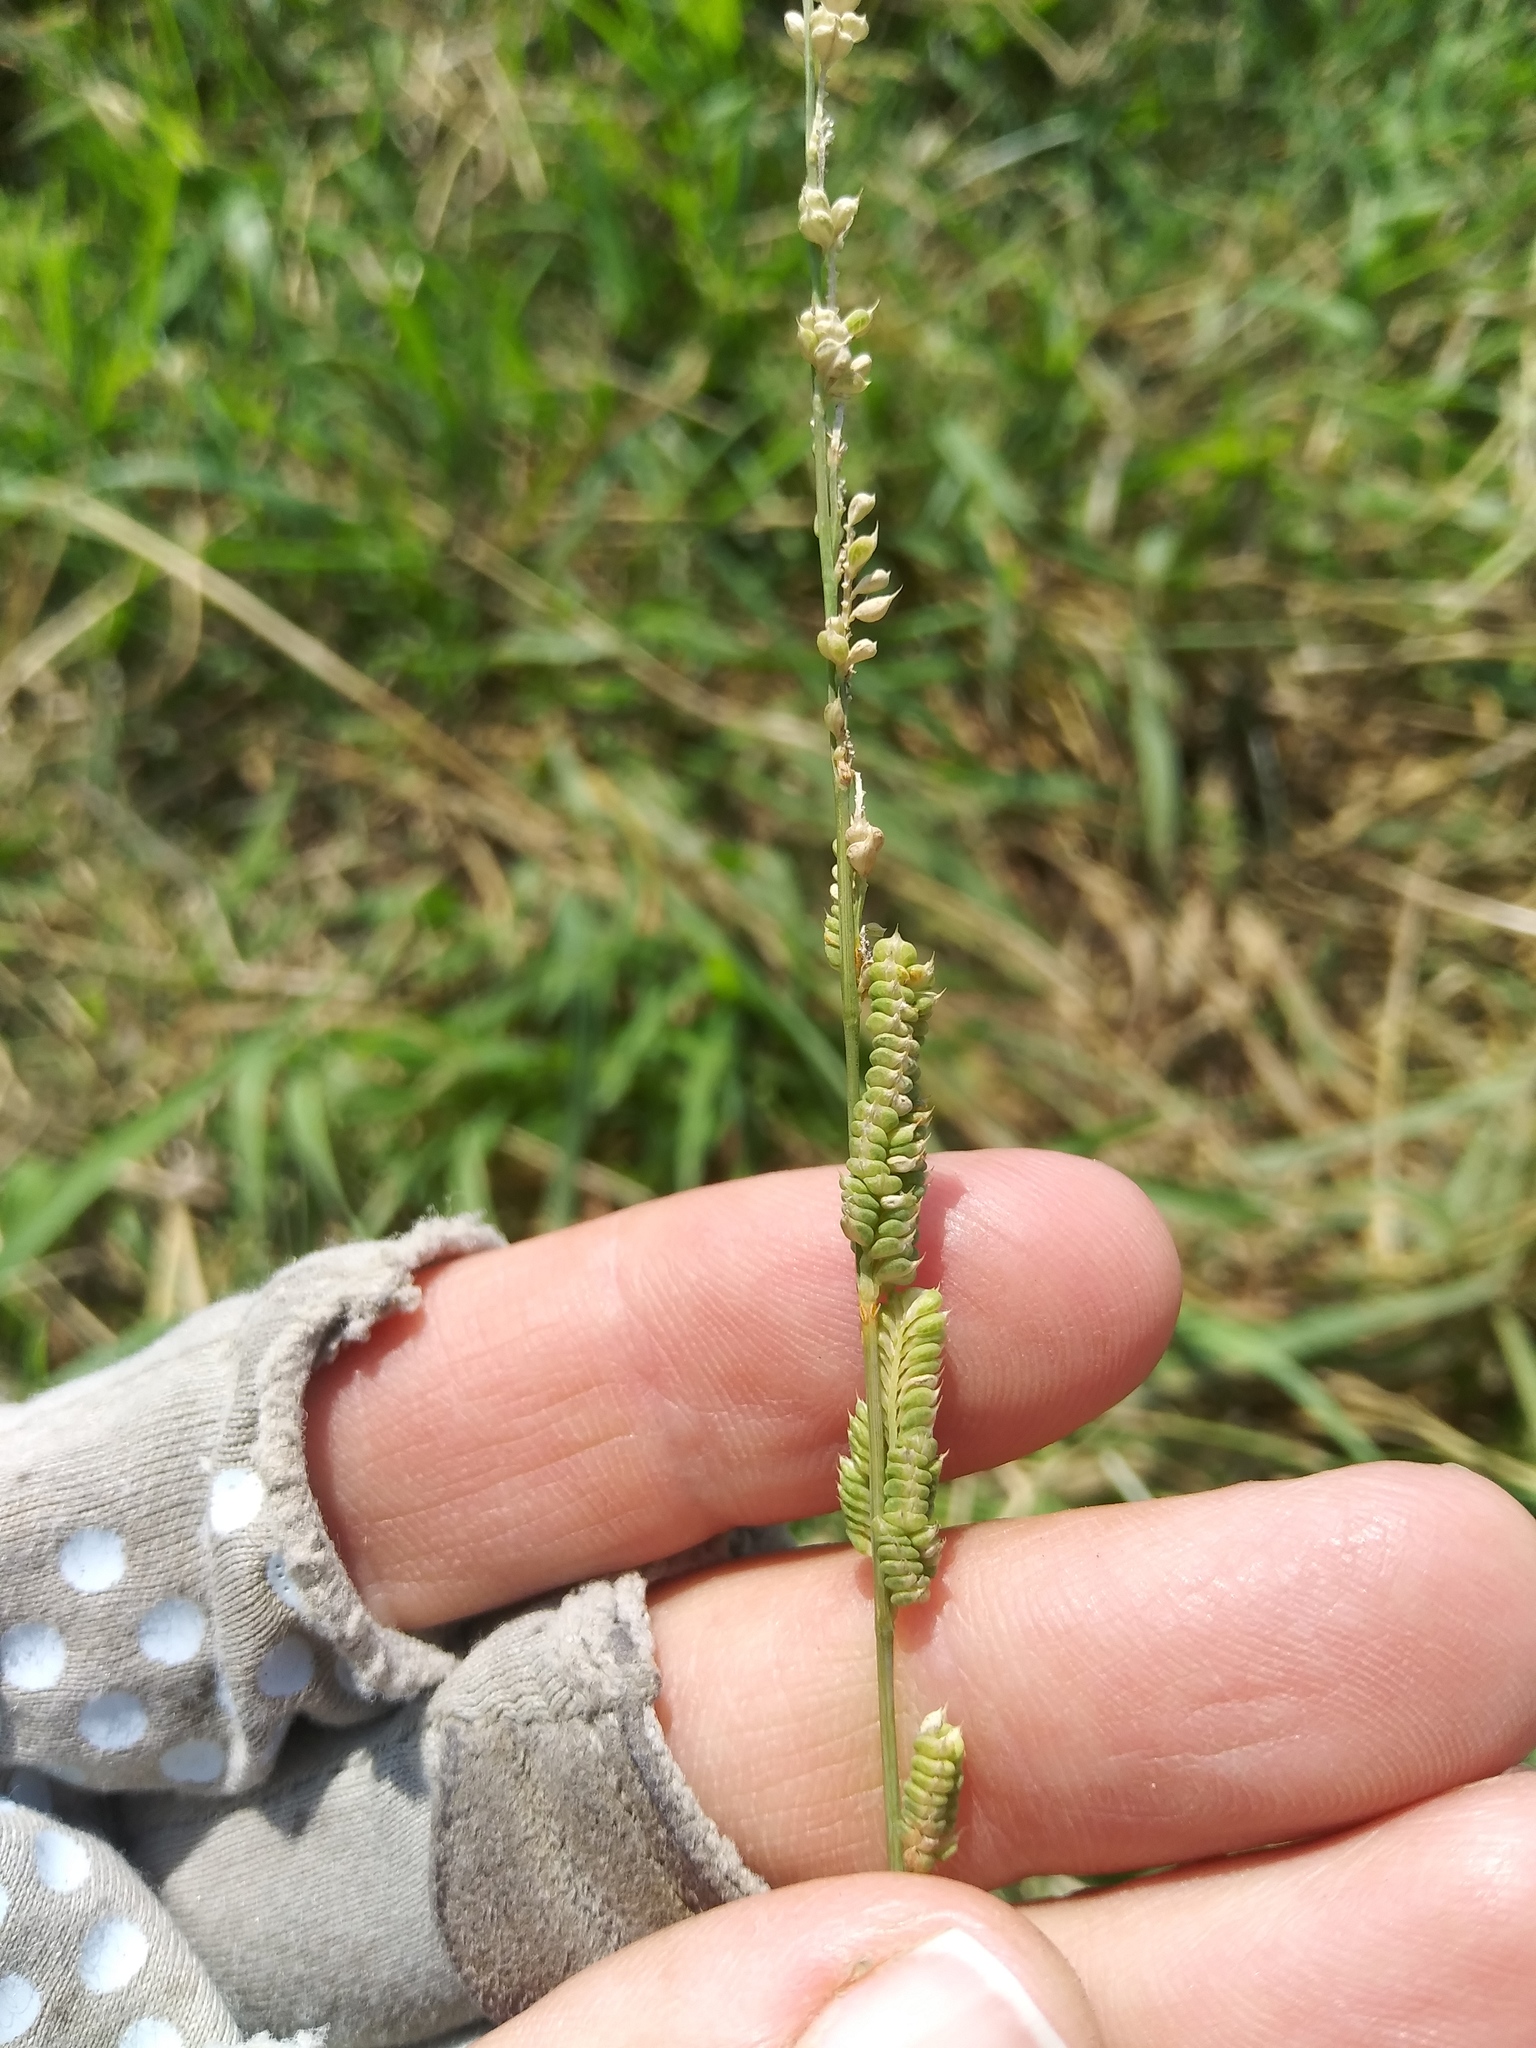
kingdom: Plantae
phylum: Tracheophyta
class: Liliopsida
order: Poales
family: Poaceae
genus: Beckmannia
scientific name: Beckmannia syzigachne
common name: American slough-grass
